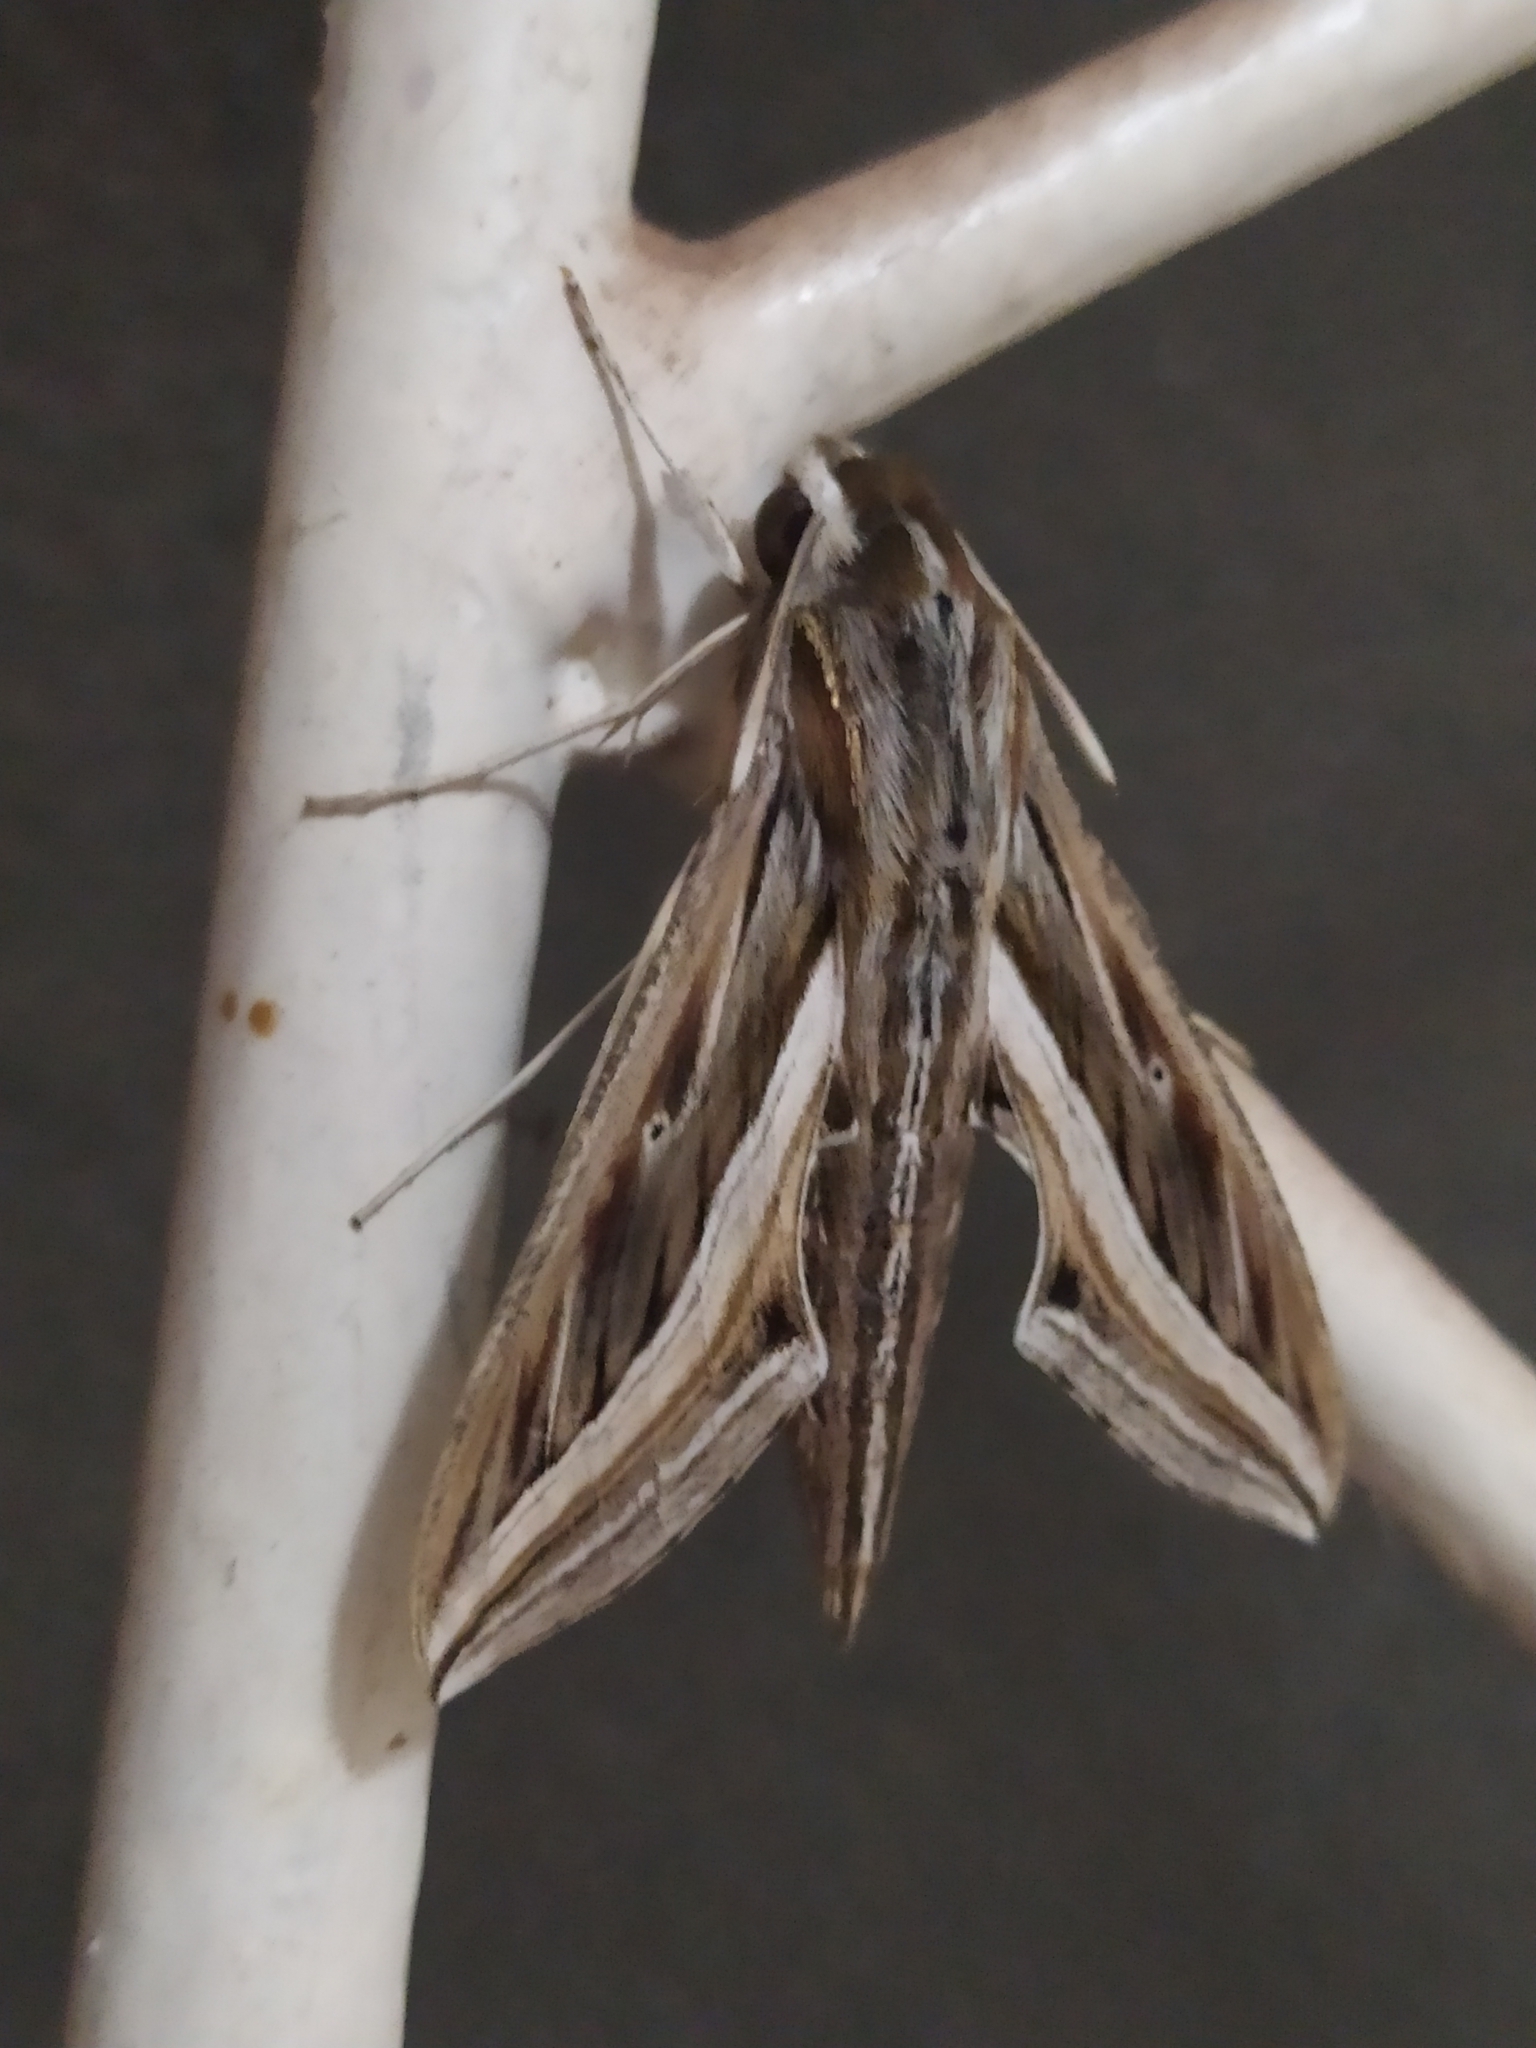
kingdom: Animalia
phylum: Arthropoda
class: Insecta
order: Lepidoptera
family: Sphingidae
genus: Hippotion
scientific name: Hippotion celerio
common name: Silver-striped hawk-moth
